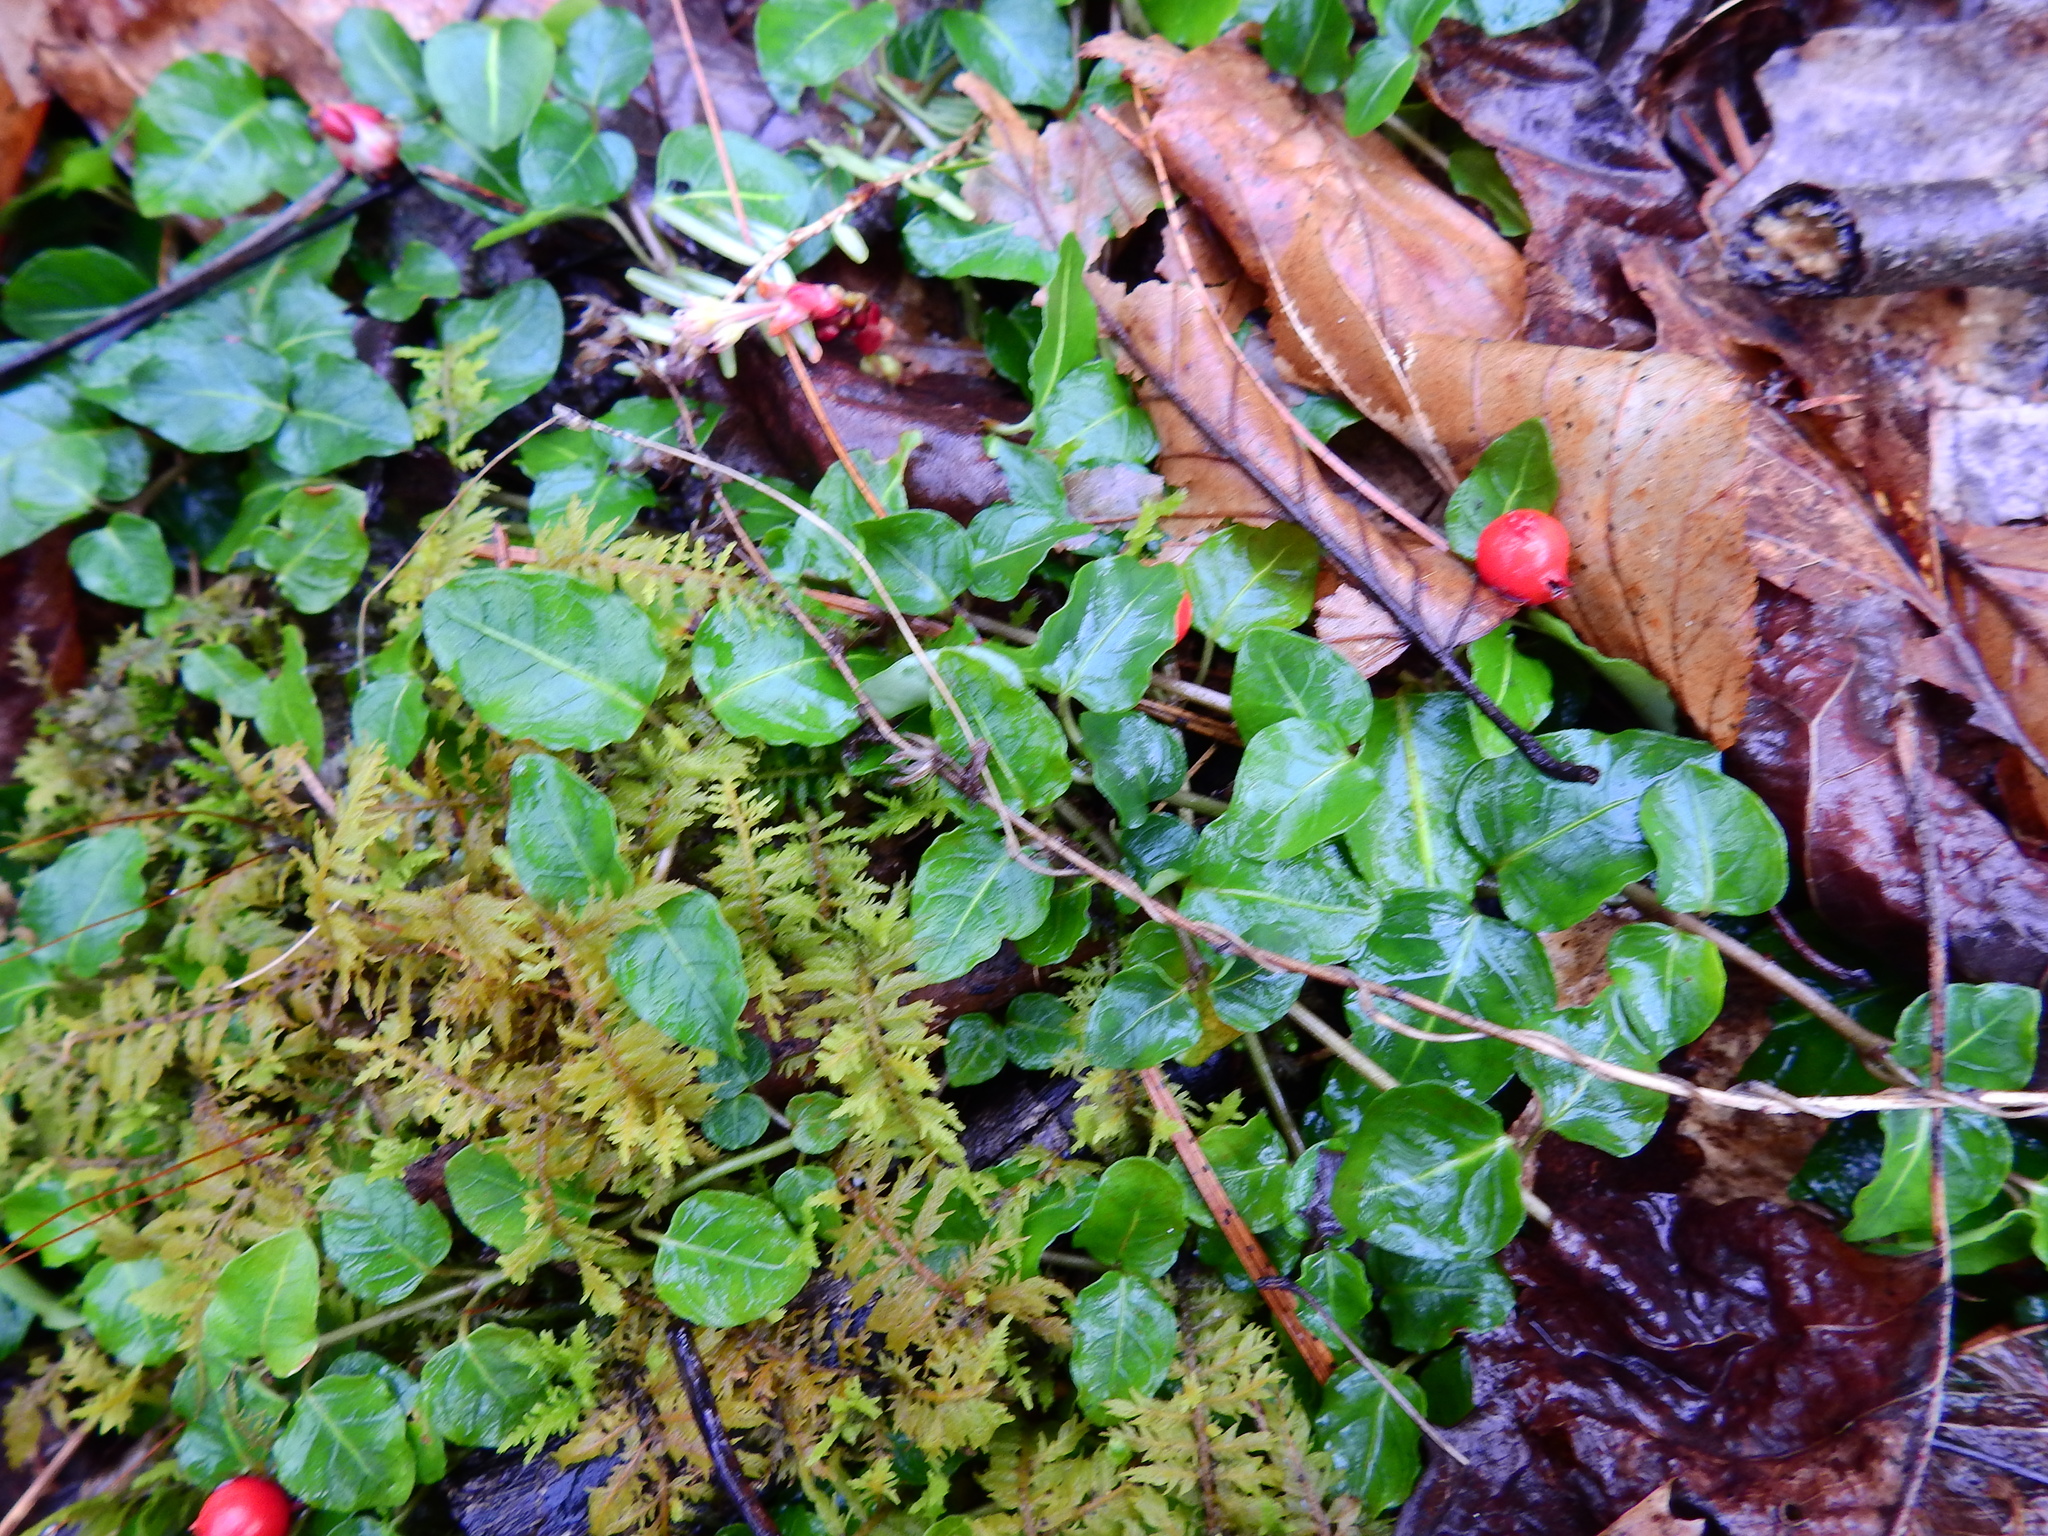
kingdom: Plantae
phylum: Tracheophyta
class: Magnoliopsida
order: Gentianales
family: Rubiaceae
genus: Mitchella
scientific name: Mitchella repens
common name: Partridge-berry
